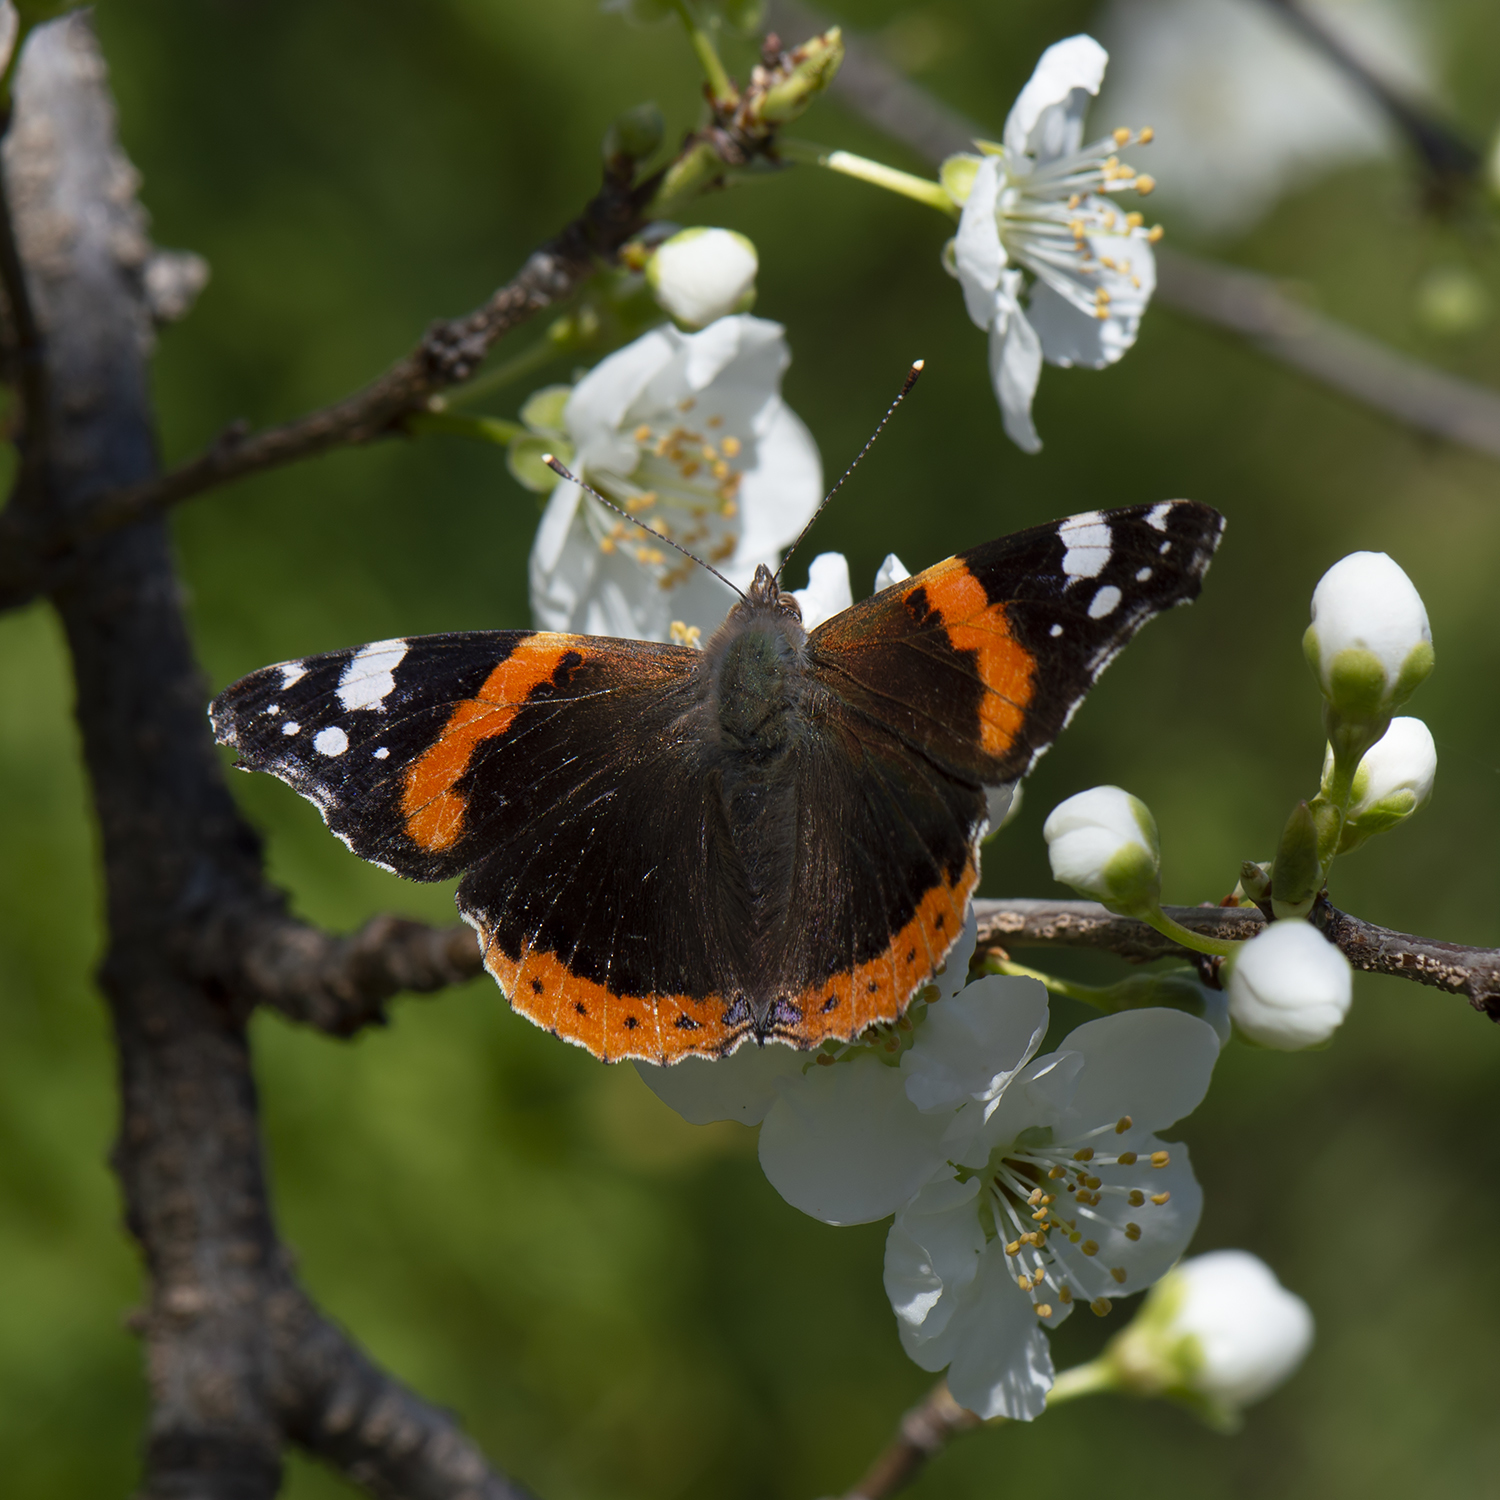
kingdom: Animalia
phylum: Arthropoda
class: Insecta
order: Lepidoptera
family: Nymphalidae
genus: Vanessa
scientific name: Vanessa atalanta
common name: Red admiral
